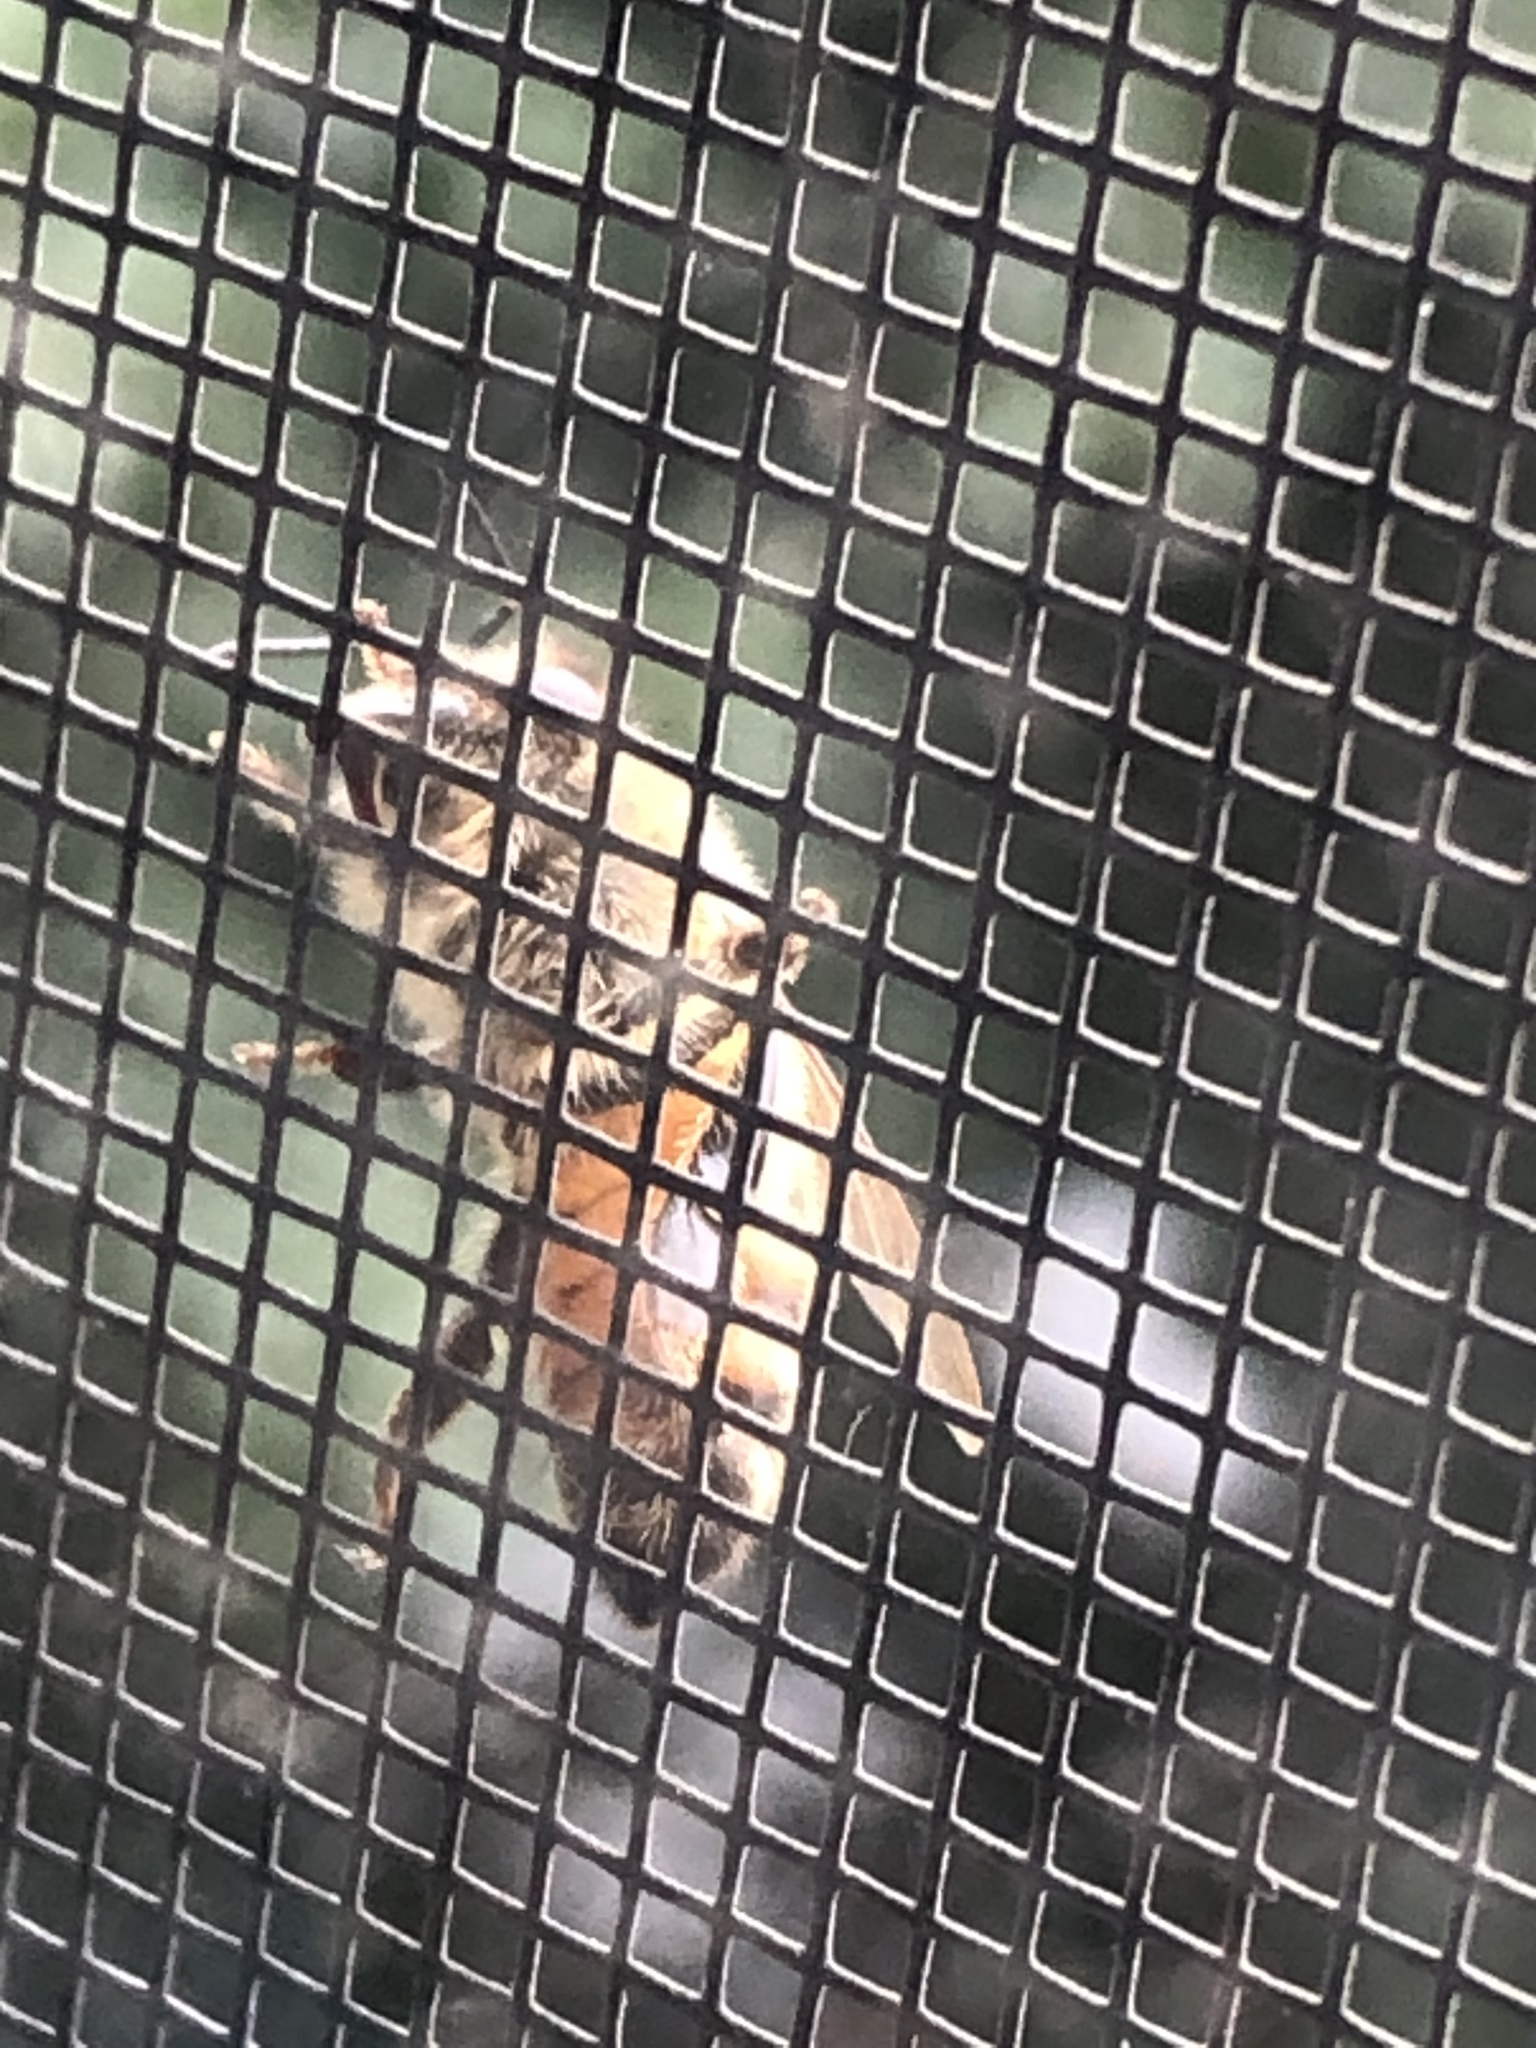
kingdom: Animalia
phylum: Arthropoda
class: Insecta
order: Hymenoptera
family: Apidae
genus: Apis
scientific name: Apis mellifera
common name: Honey bee
